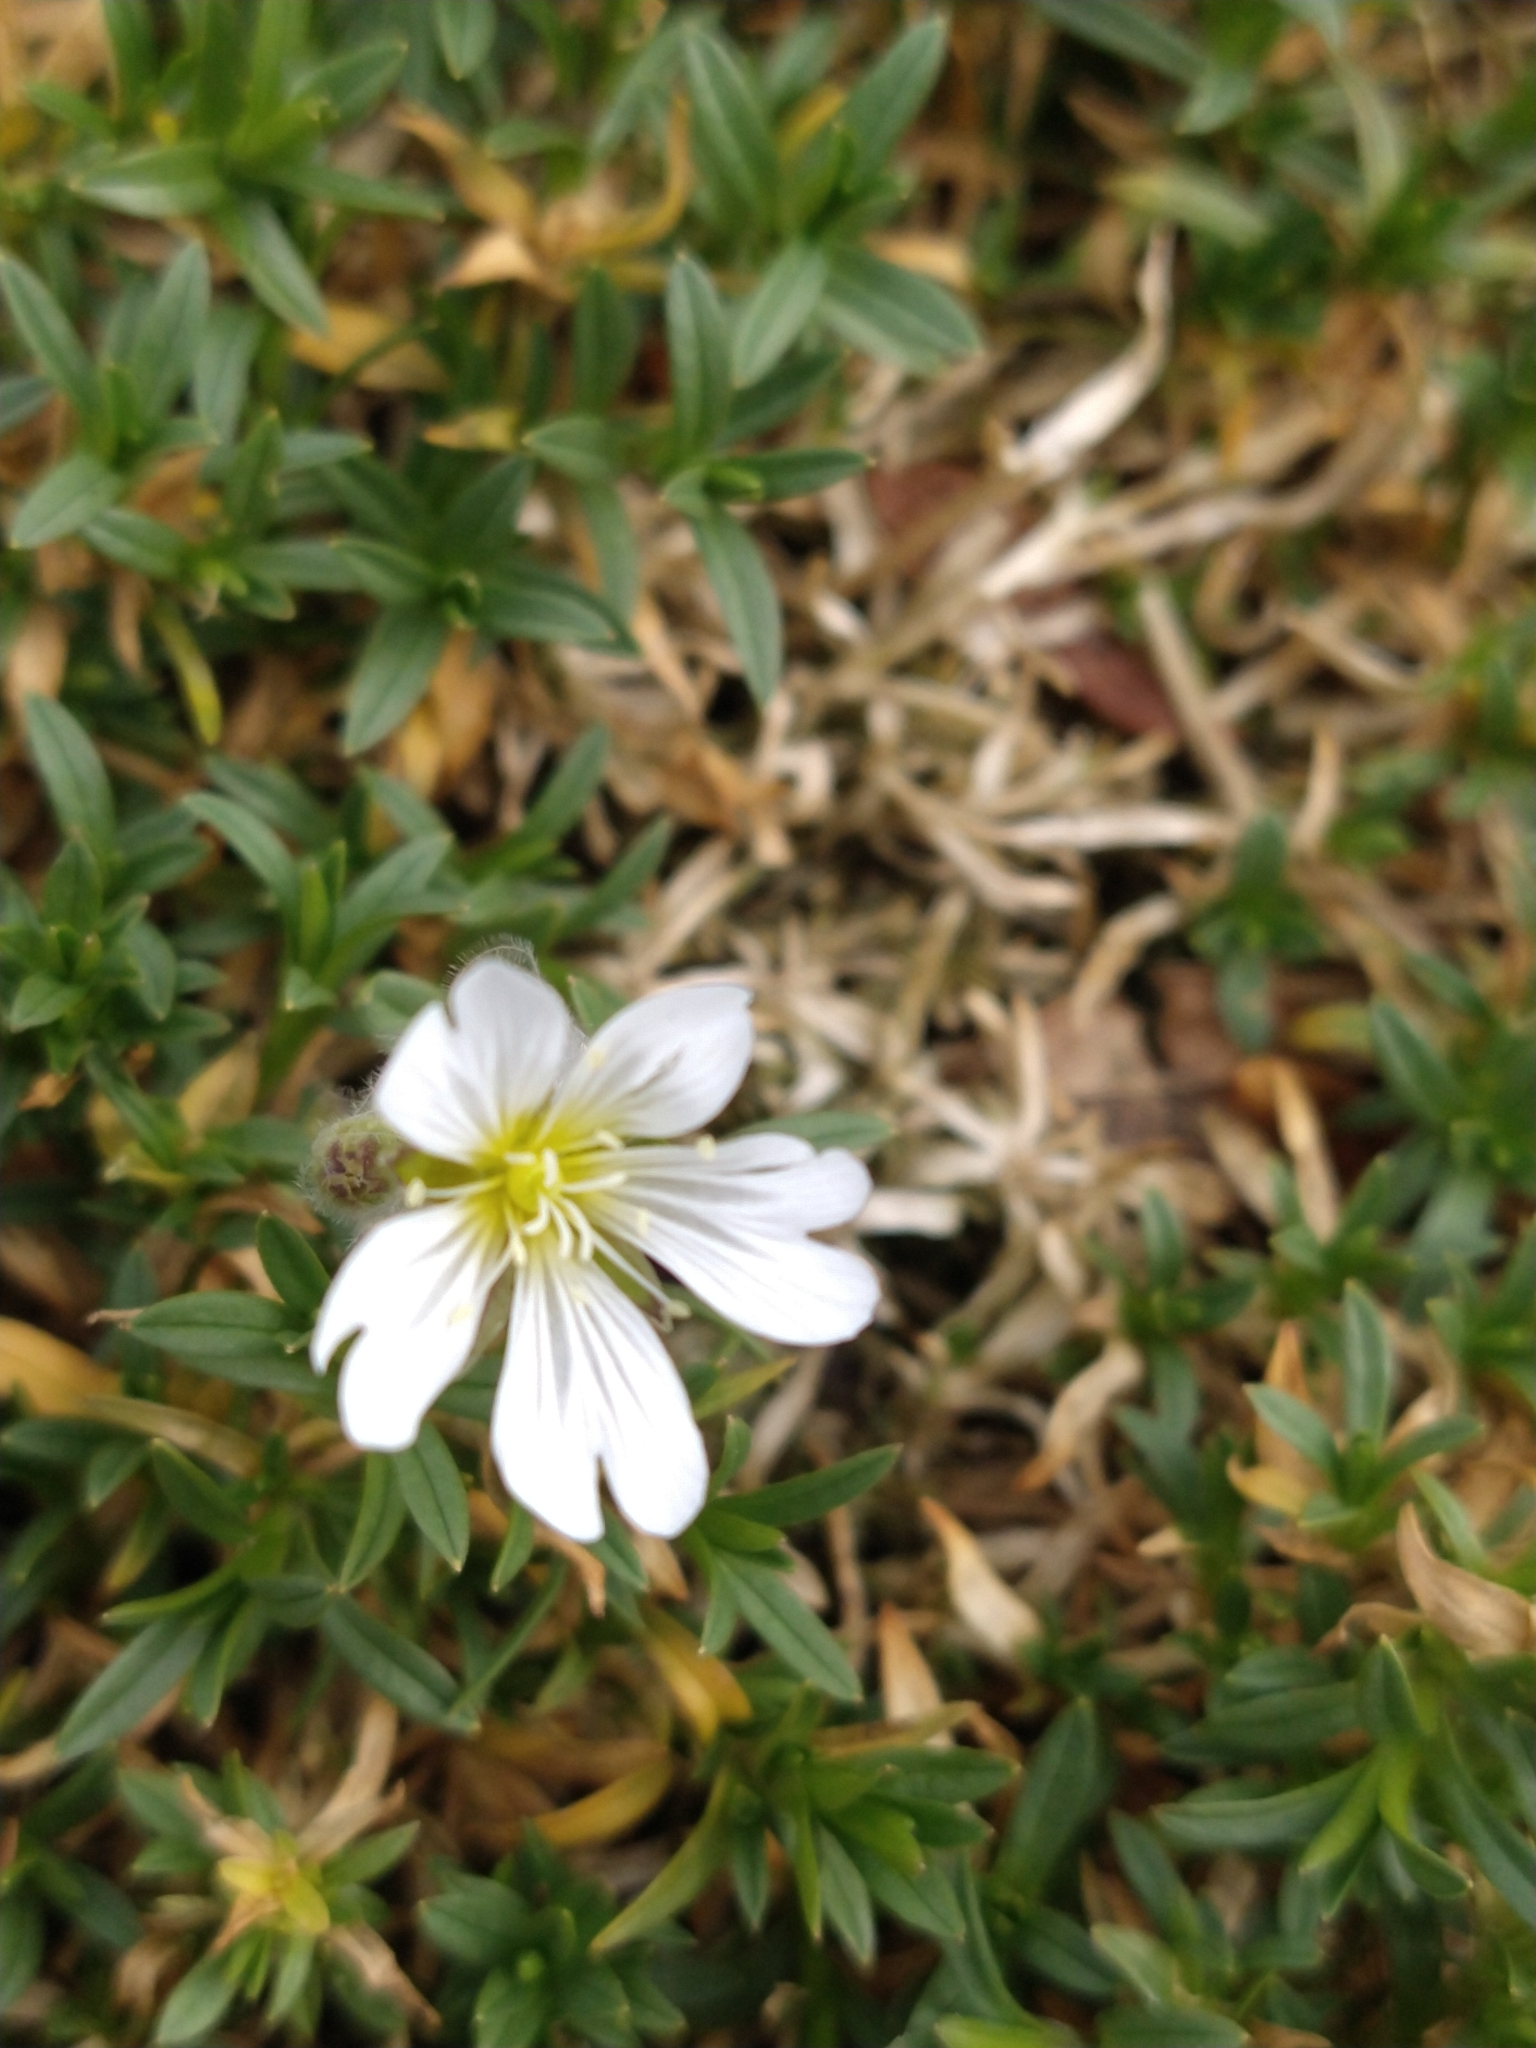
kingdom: Plantae
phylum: Tracheophyta
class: Magnoliopsida
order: Caryophyllales
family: Caryophyllaceae
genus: Cerastium
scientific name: Cerastium arvense
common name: Field mouse-ear
